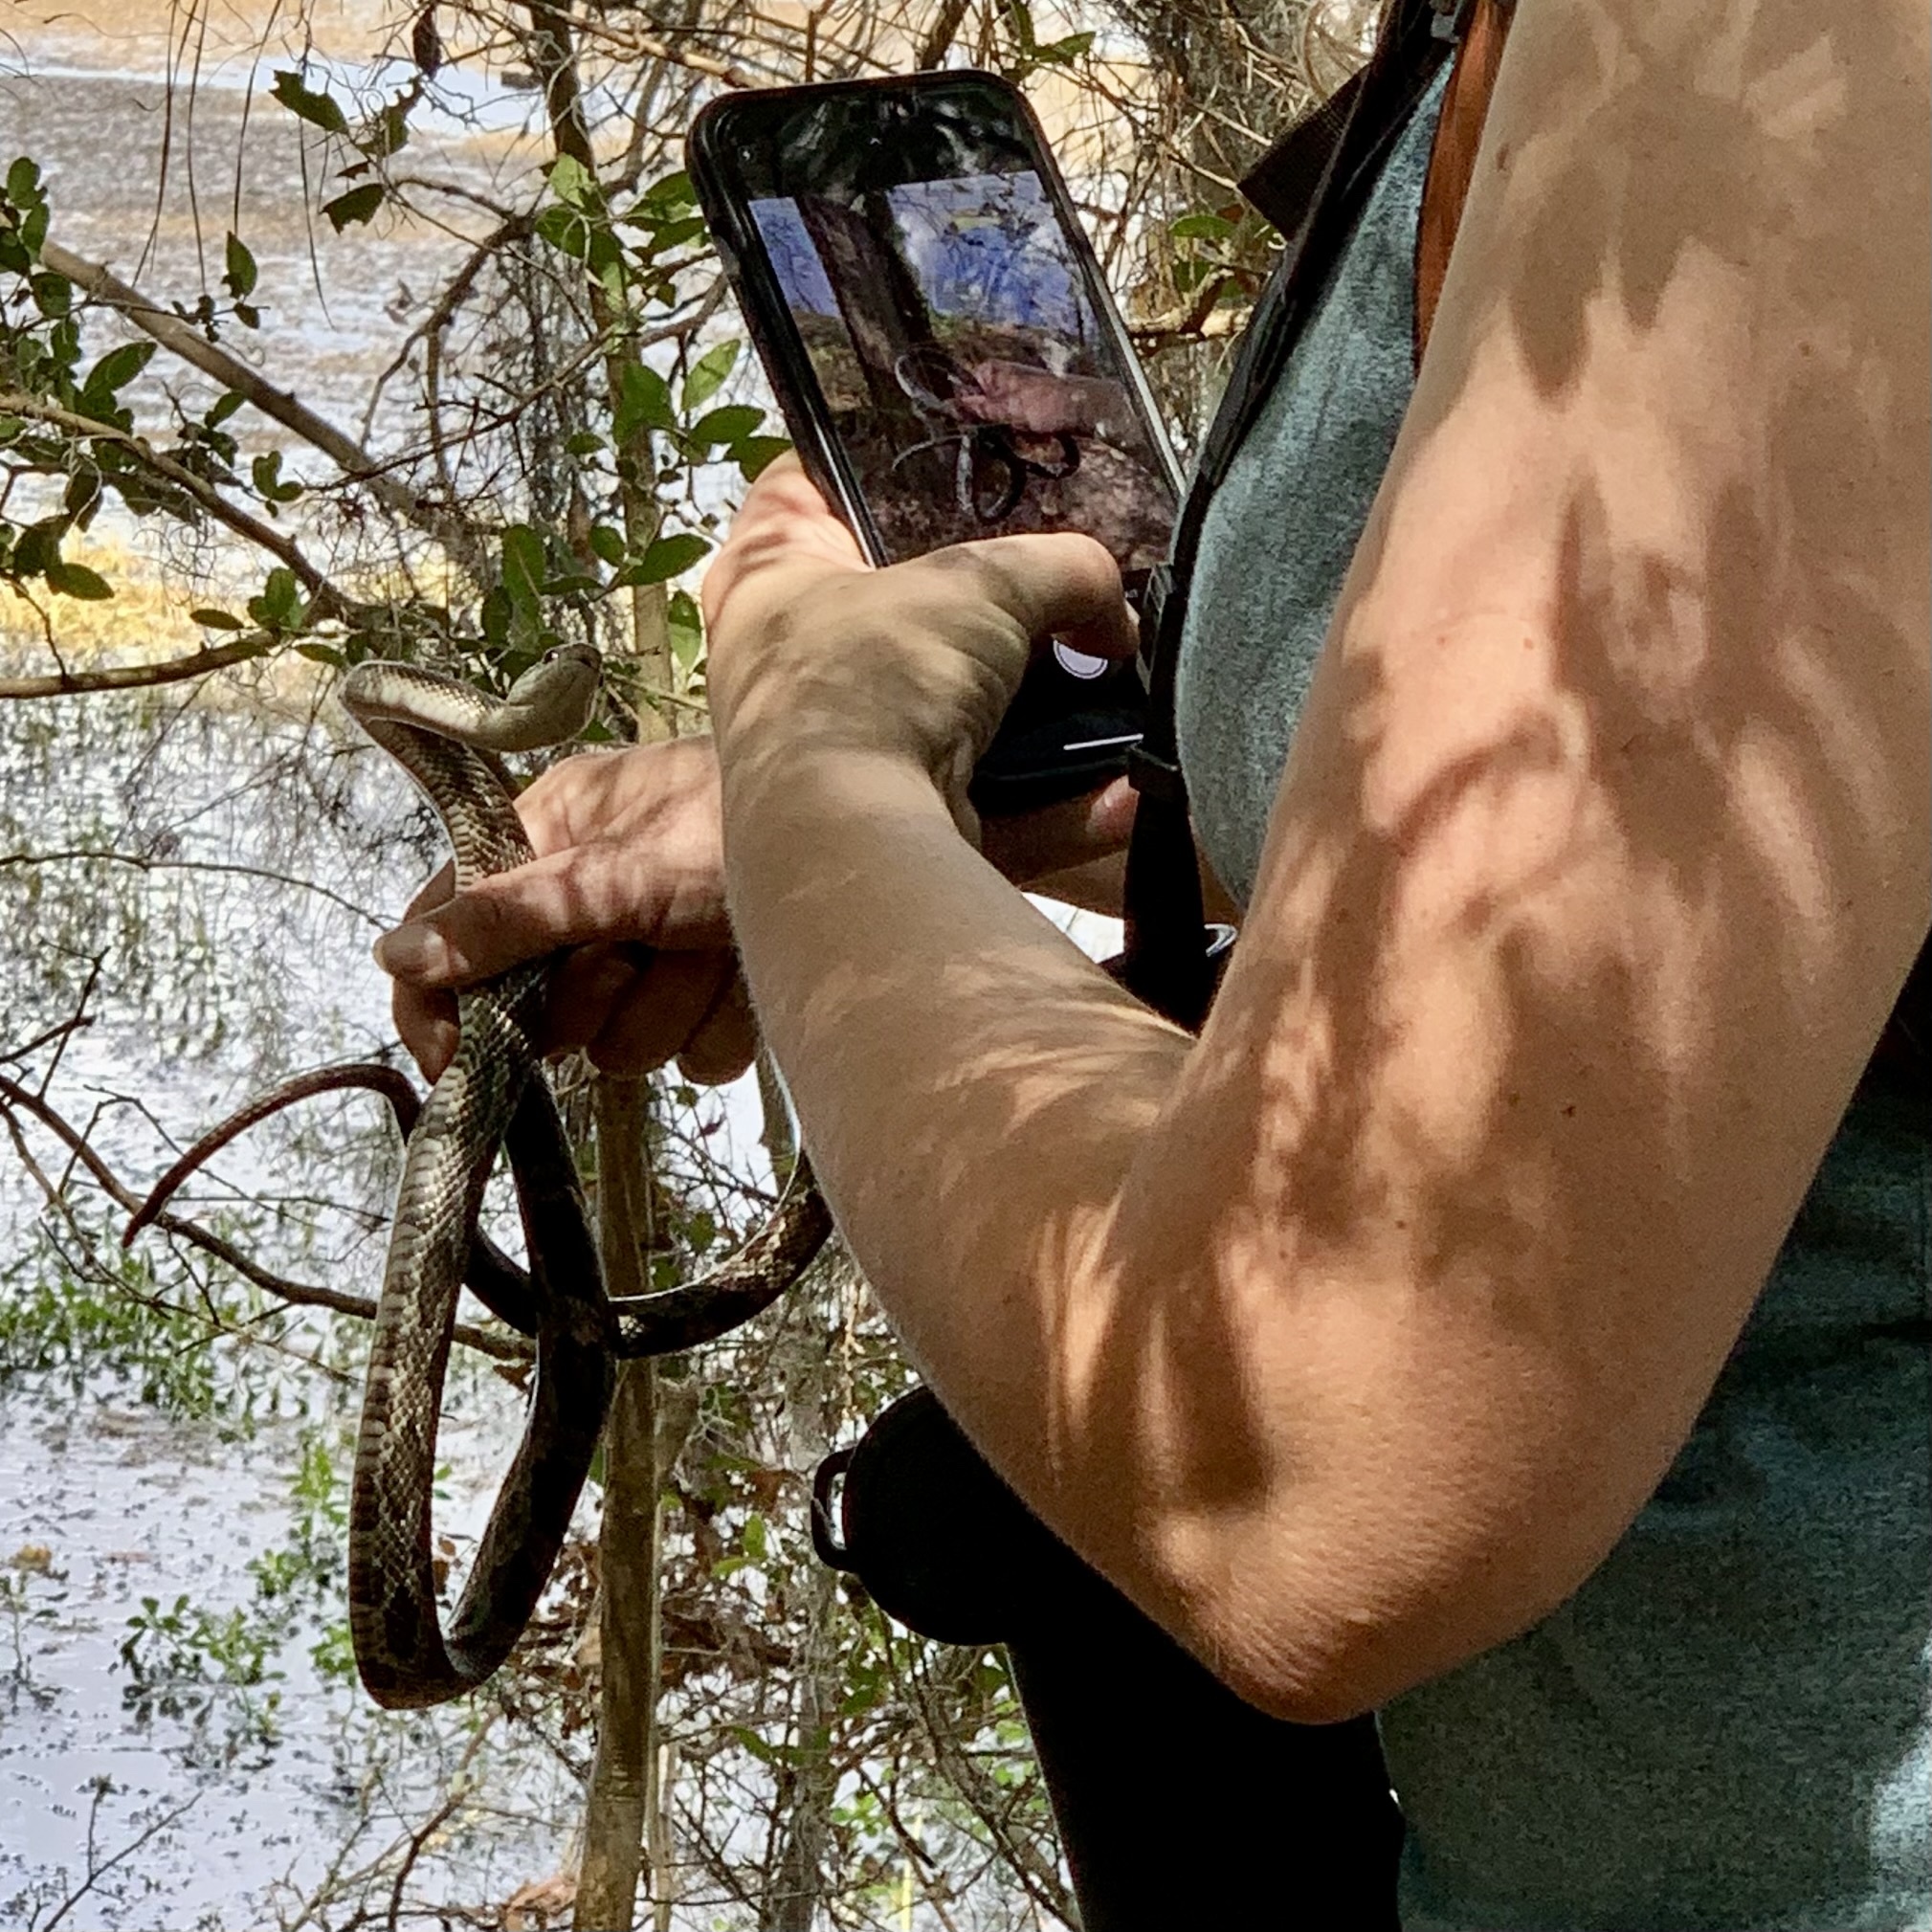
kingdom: Animalia
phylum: Chordata
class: Squamata
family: Colubridae
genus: Pantherophis
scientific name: Pantherophis obsoletus
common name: Black rat snake
